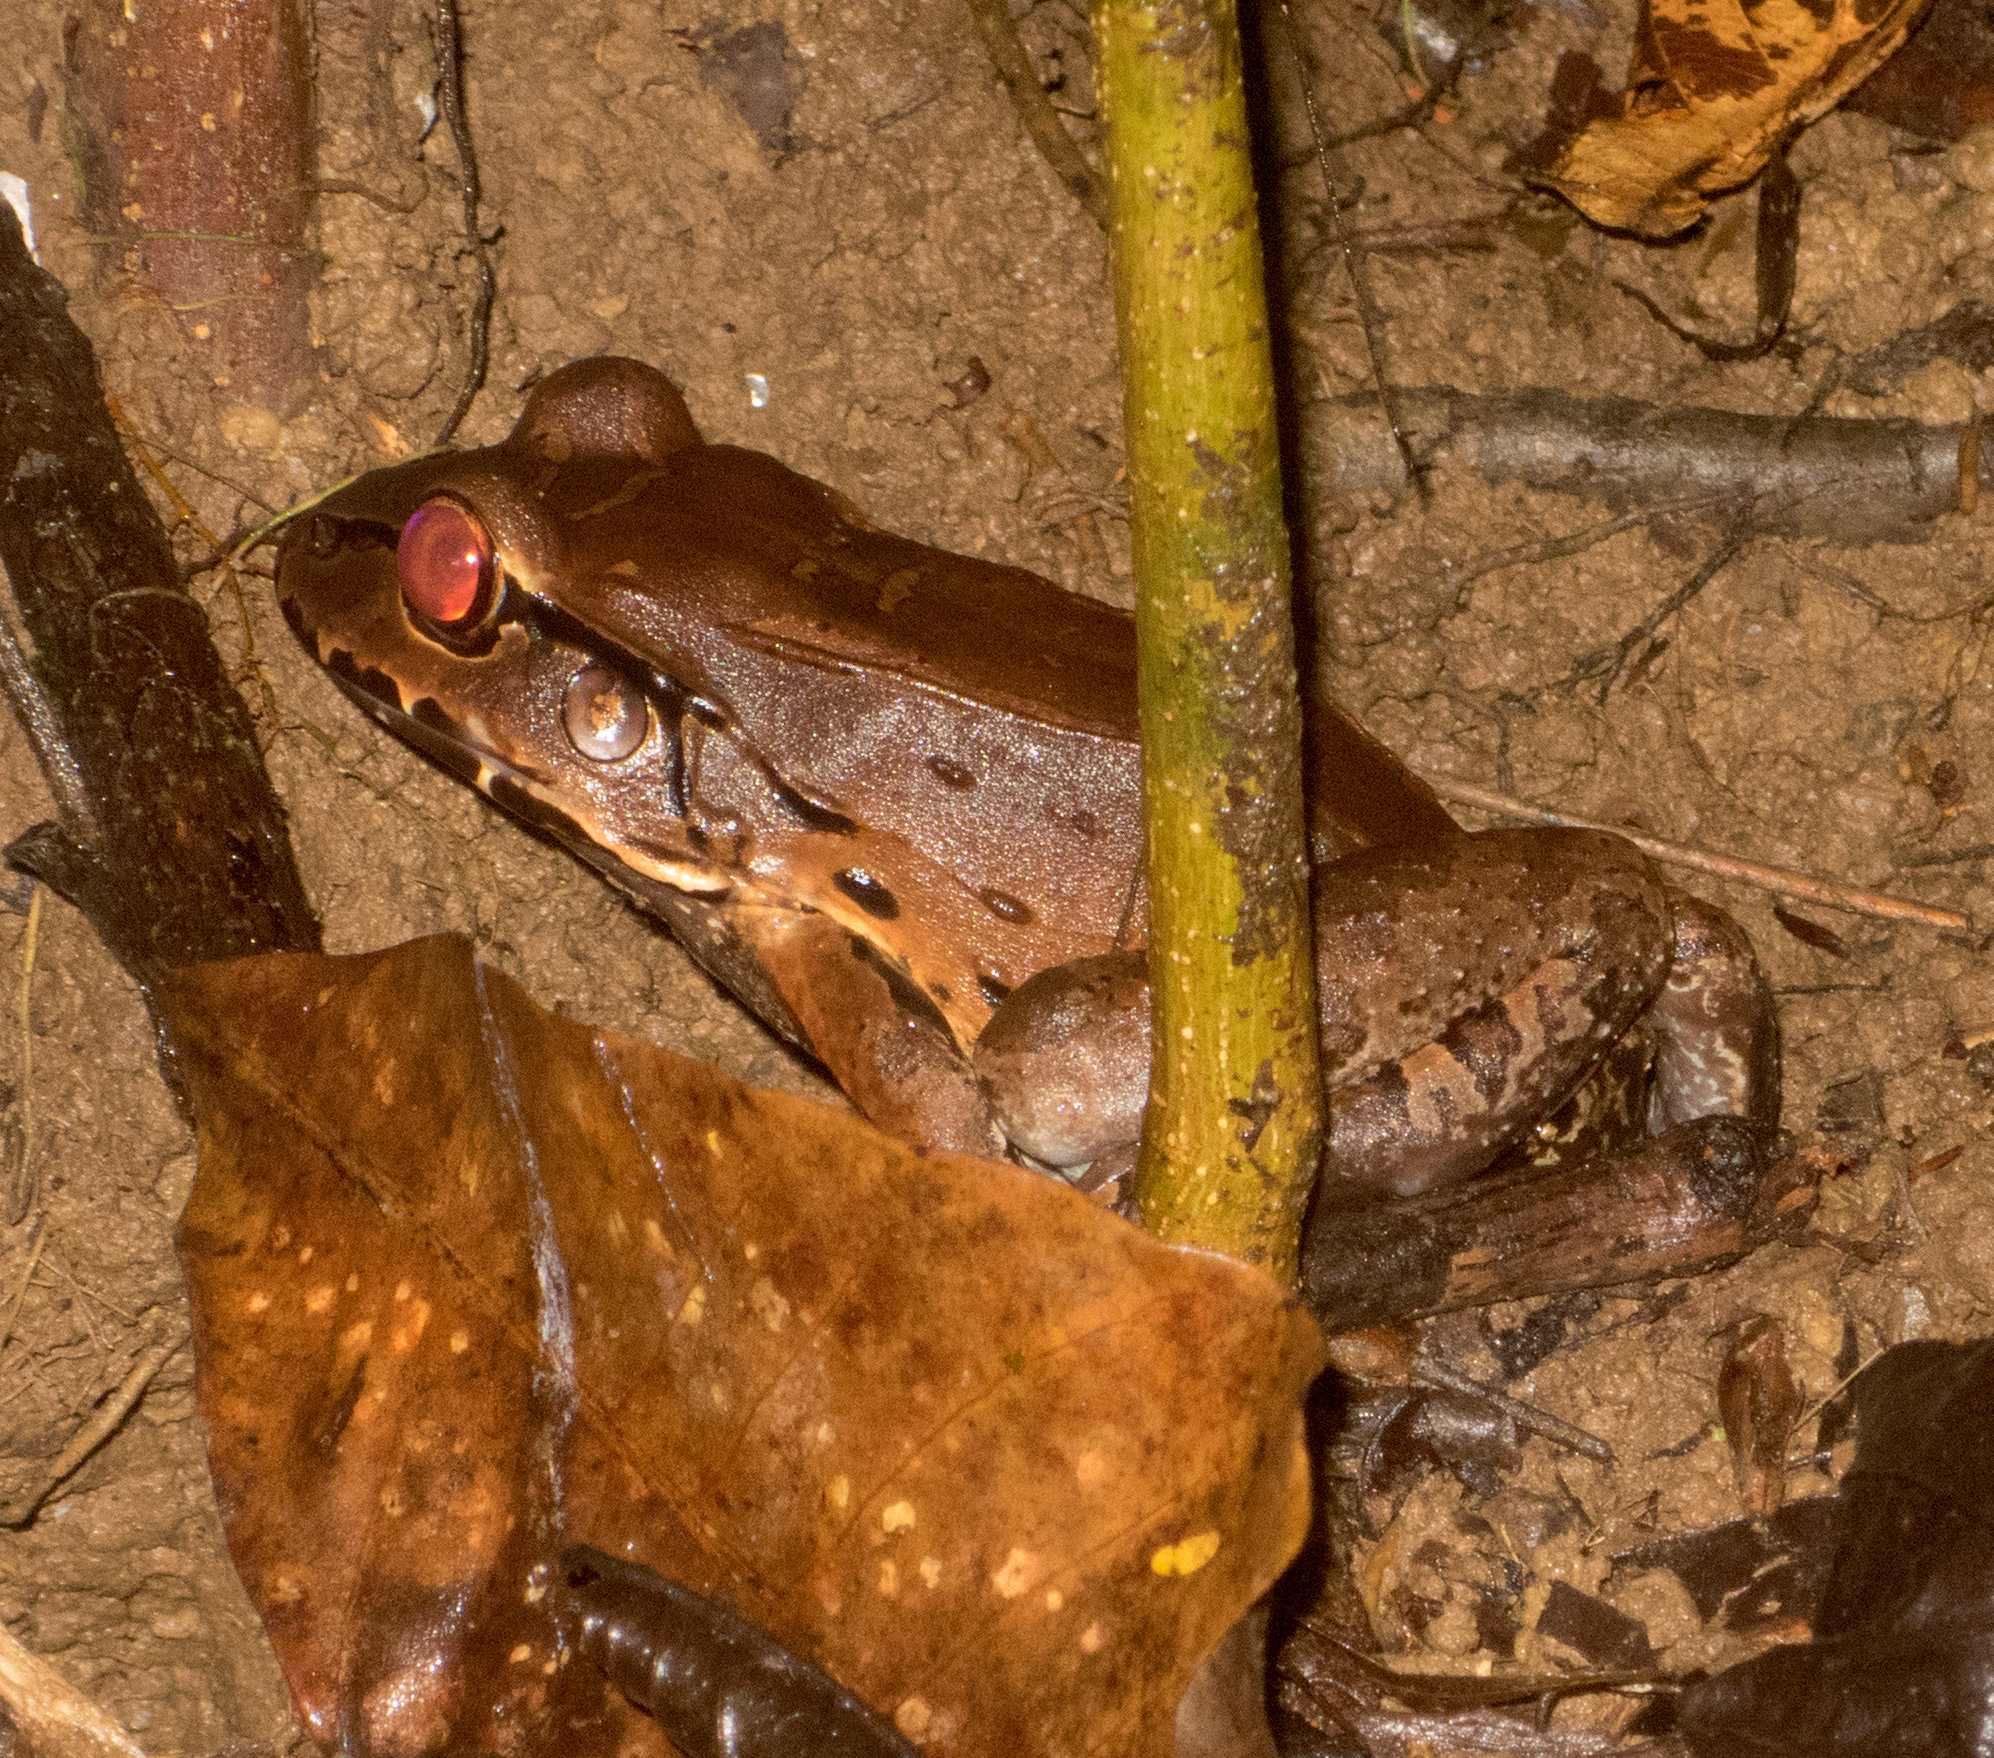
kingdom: Animalia
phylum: Chordata
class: Amphibia
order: Anura
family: Leptodactylidae
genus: Leptodactylus
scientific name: Leptodactylus savagei
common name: Savage's thin-toed frog
